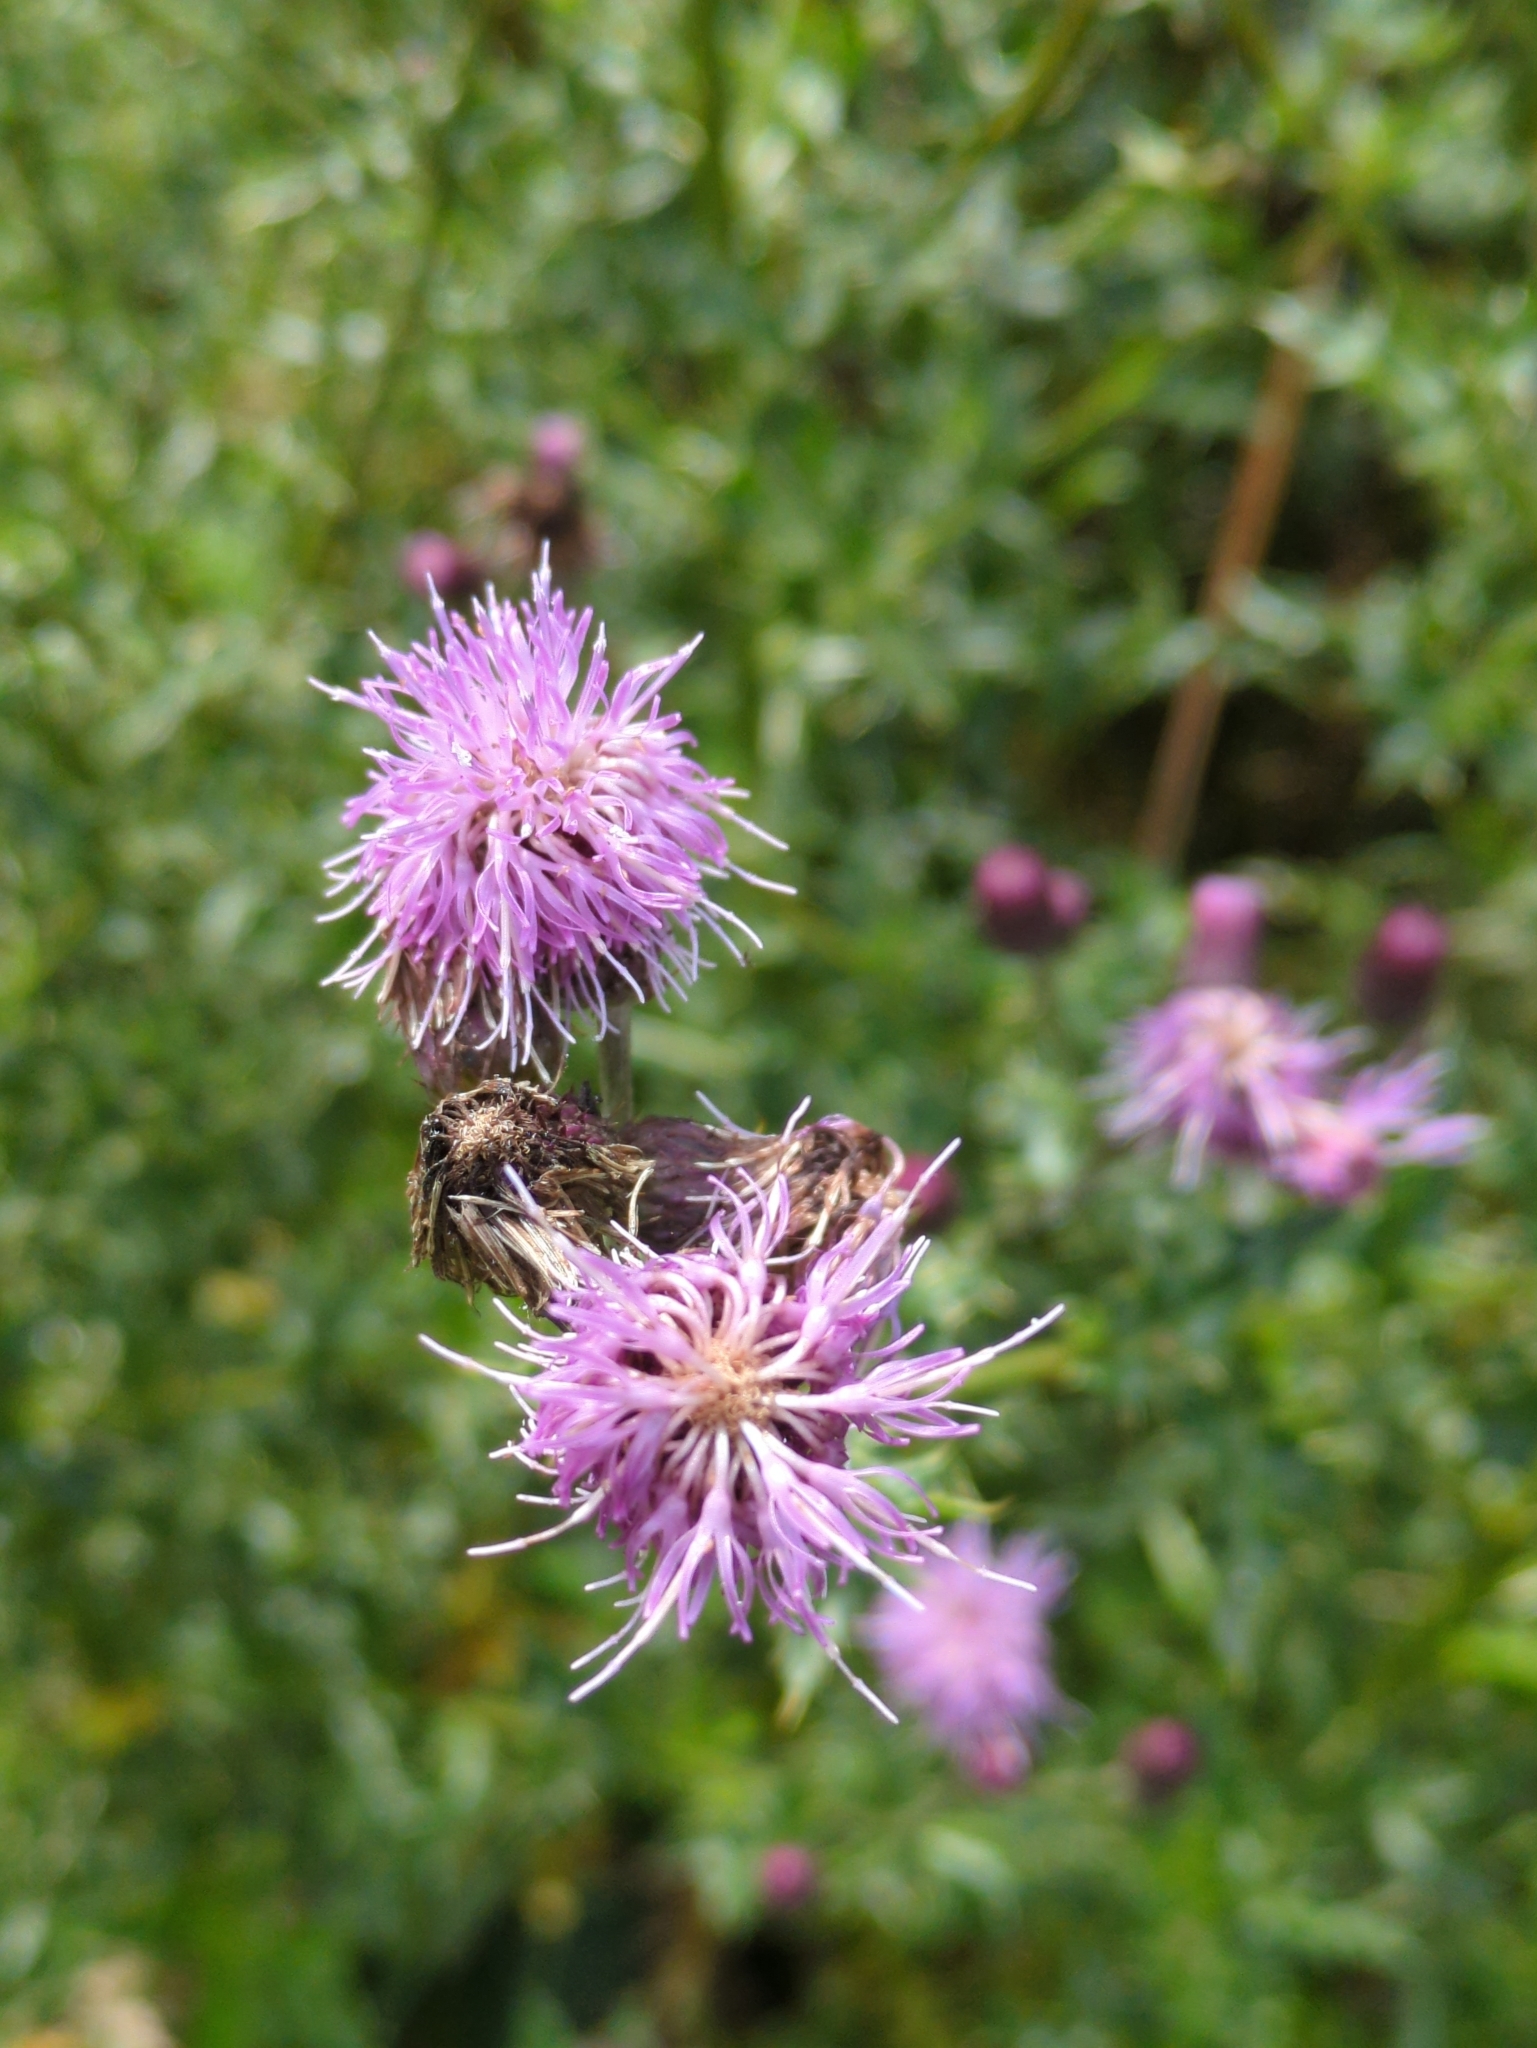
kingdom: Plantae
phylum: Tracheophyta
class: Magnoliopsida
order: Asterales
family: Asteraceae
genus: Cirsium
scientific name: Cirsium arvense
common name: Creeping thistle
